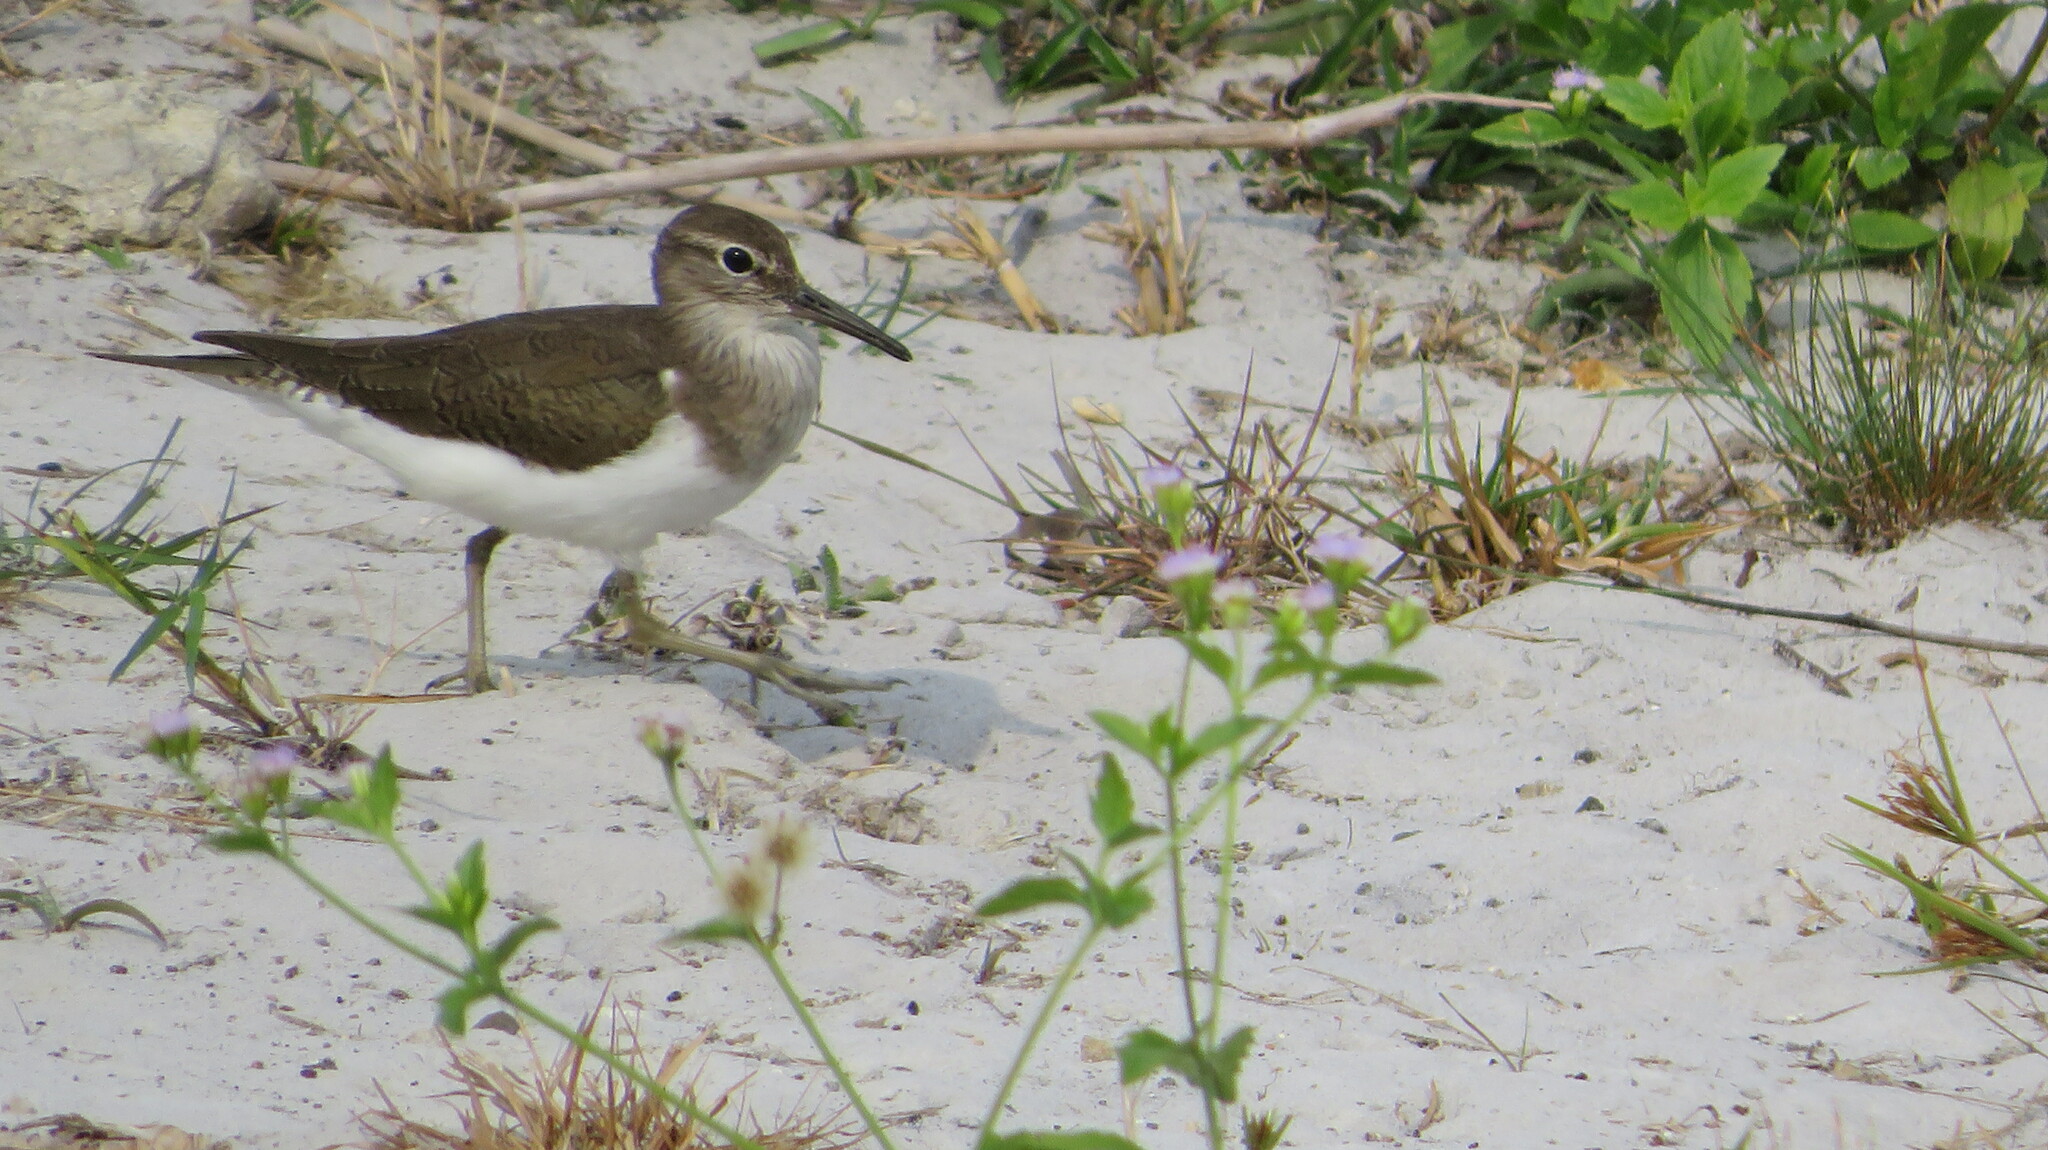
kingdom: Animalia
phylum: Chordata
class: Aves
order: Charadriiformes
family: Scolopacidae
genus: Actitis
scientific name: Actitis hypoleucos
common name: Common sandpiper
